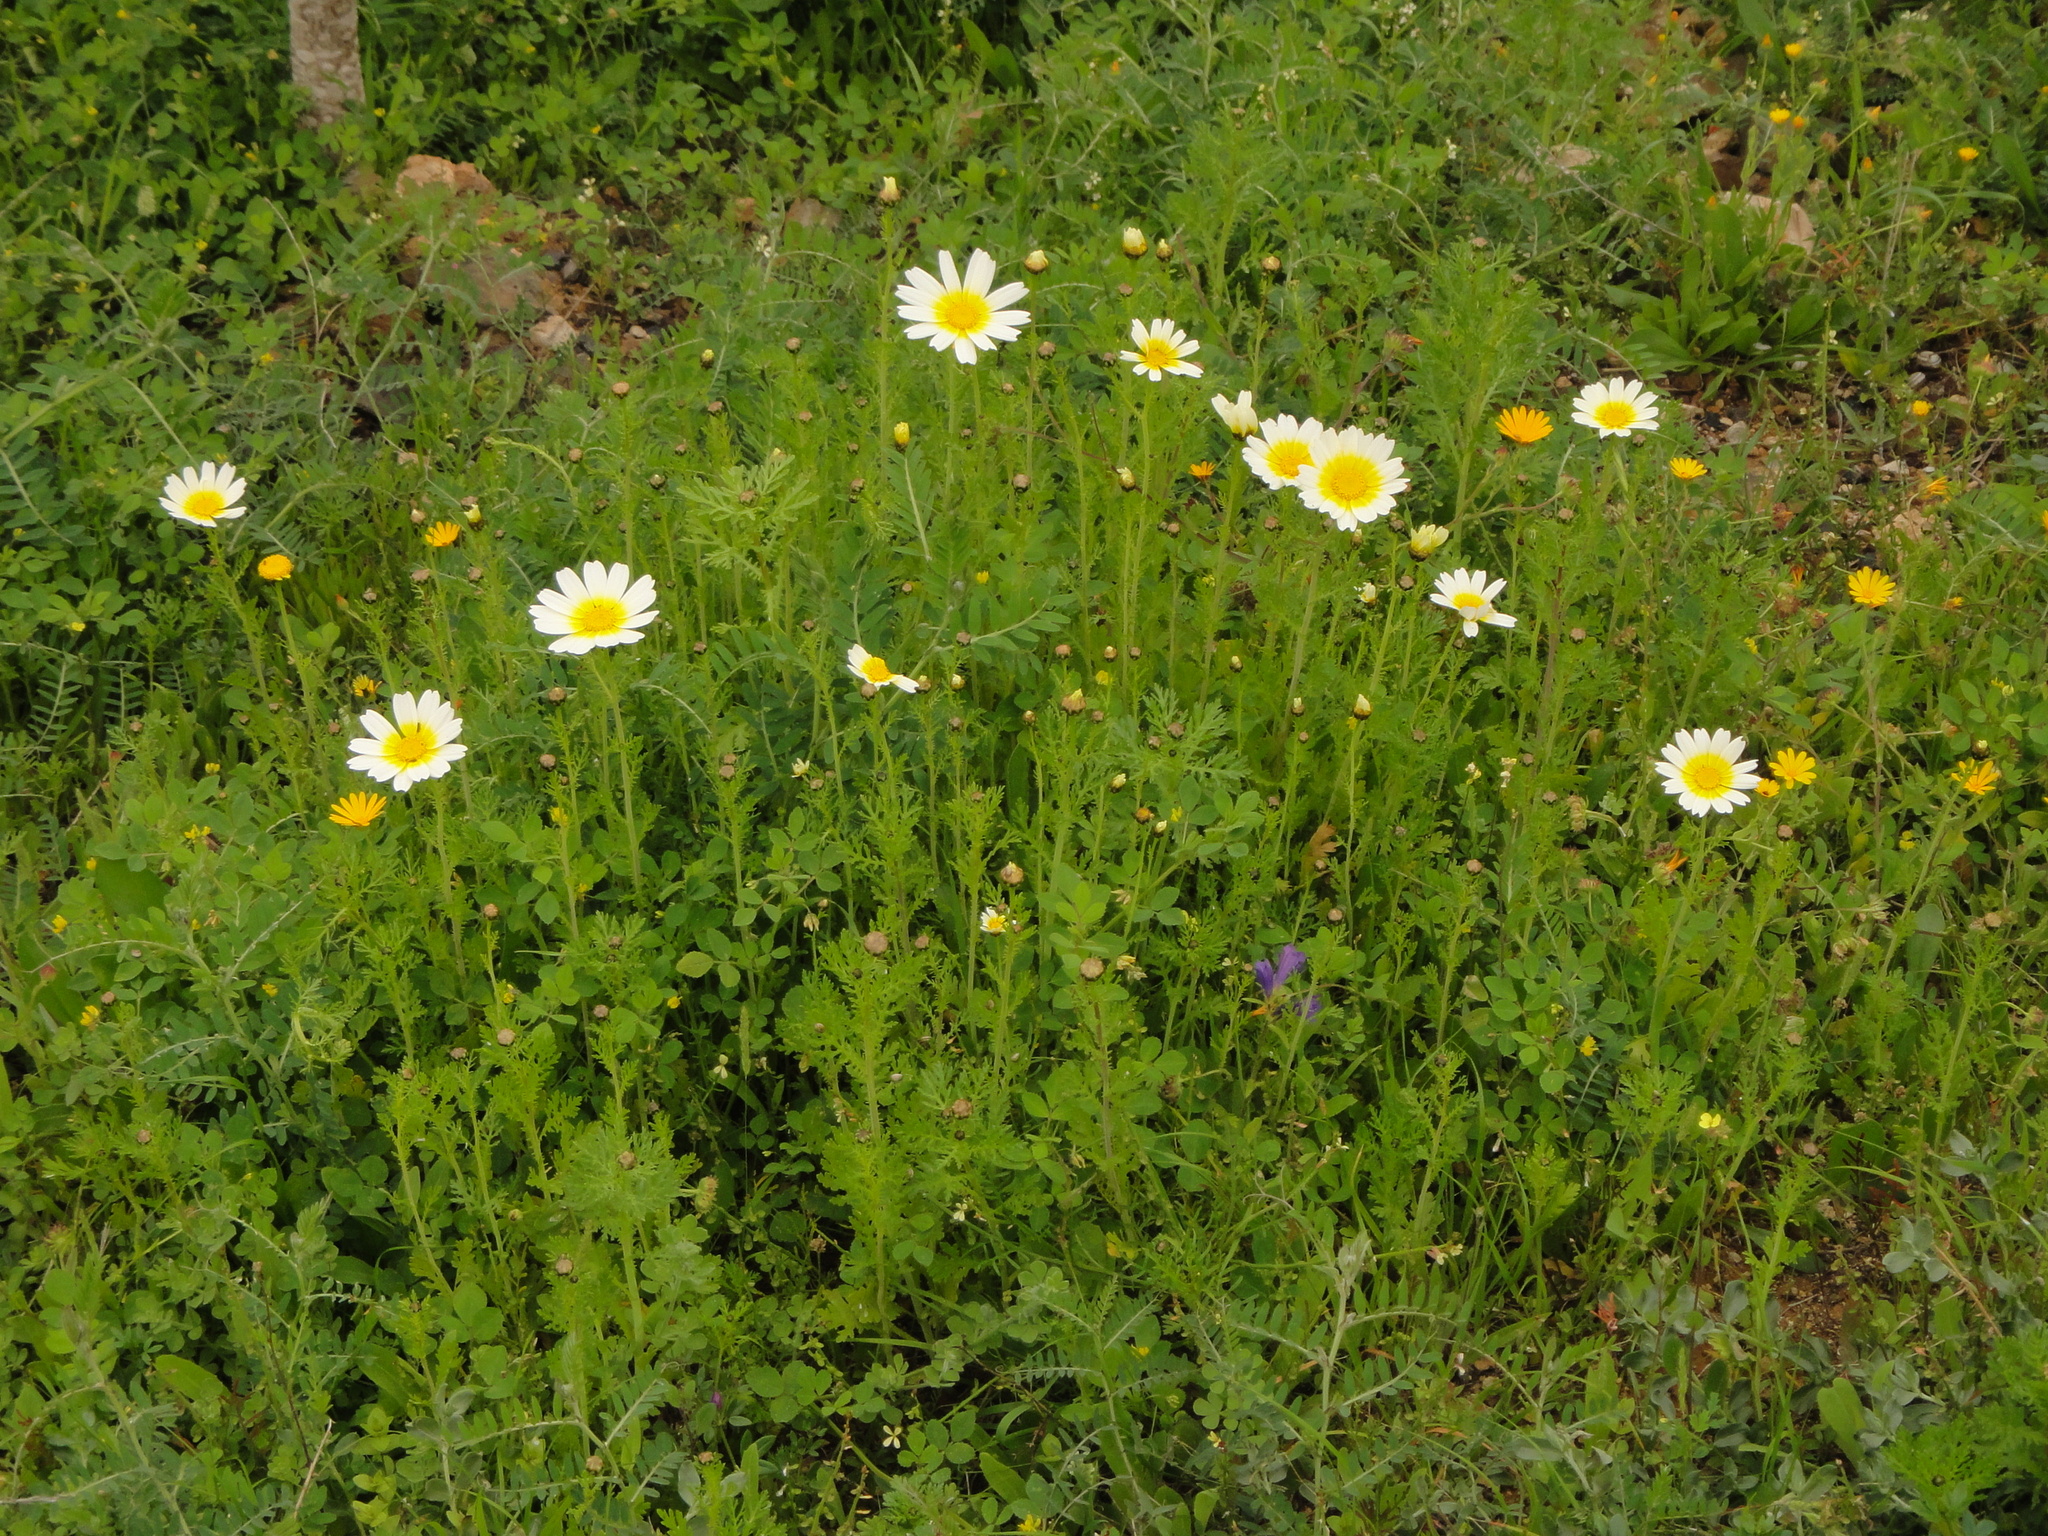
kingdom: Plantae
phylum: Tracheophyta
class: Magnoliopsida
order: Asterales
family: Asteraceae
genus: Glebionis
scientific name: Glebionis coronaria
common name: Crowndaisy
